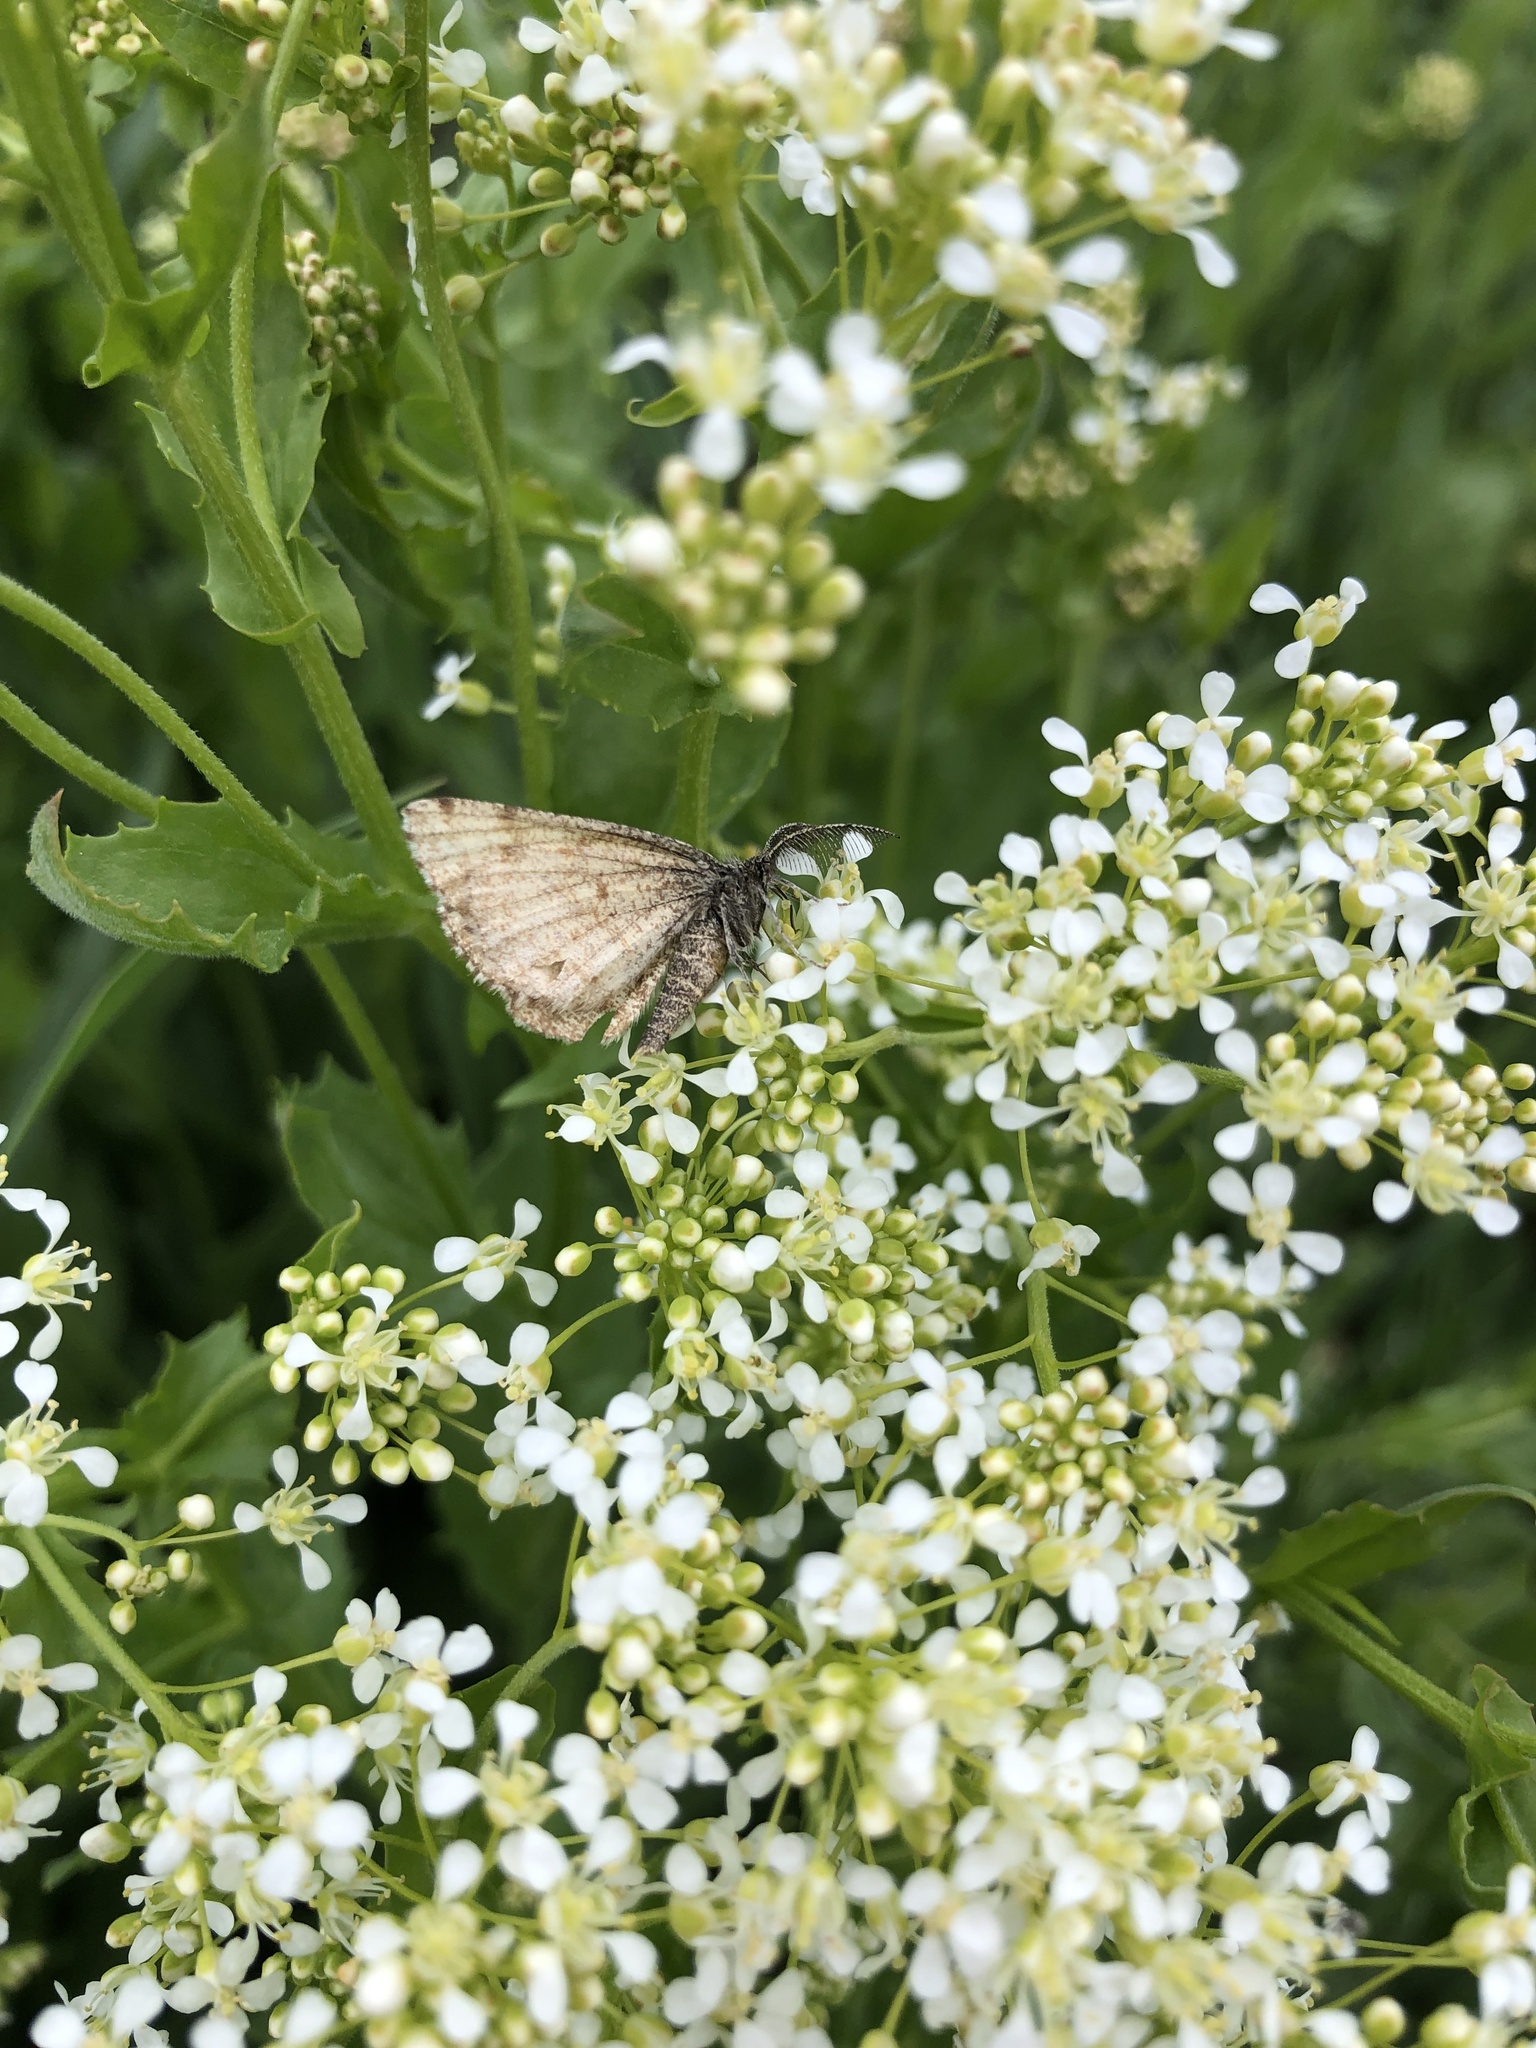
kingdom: Animalia
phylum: Arthropoda
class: Insecta
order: Lepidoptera
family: Geometridae
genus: Ematurga
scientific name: Ematurga atomaria
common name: Common heath
